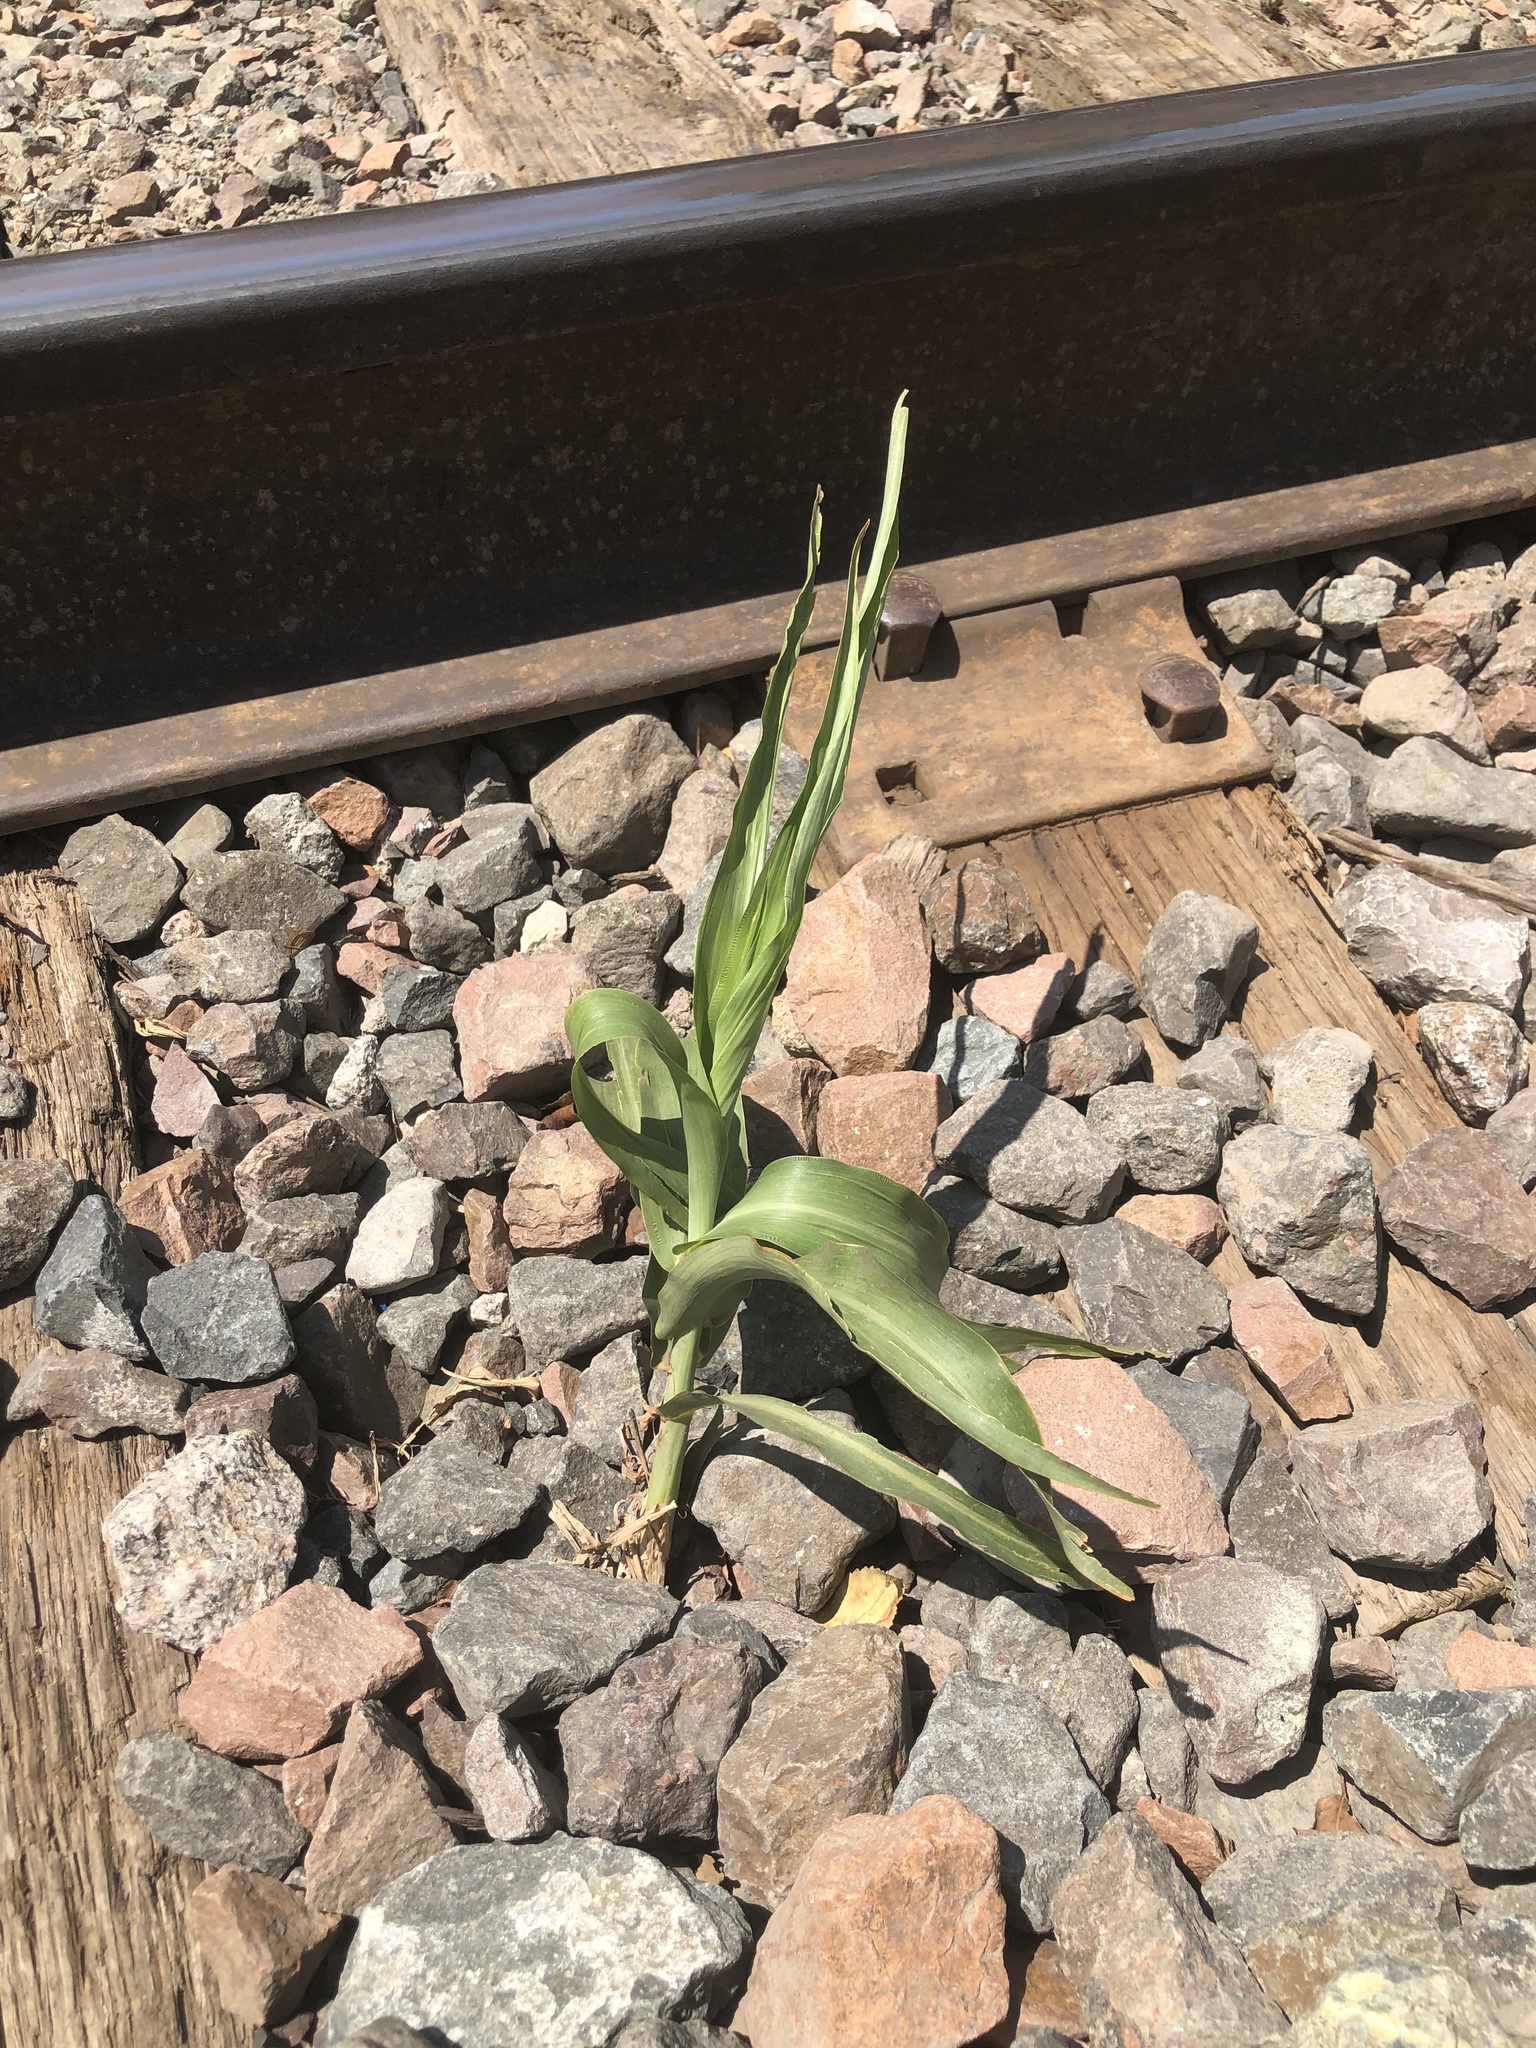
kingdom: Plantae
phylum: Tracheophyta
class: Liliopsida
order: Poales
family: Poaceae
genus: Sorghum
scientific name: Sorghum bicolor
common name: Sorghum
